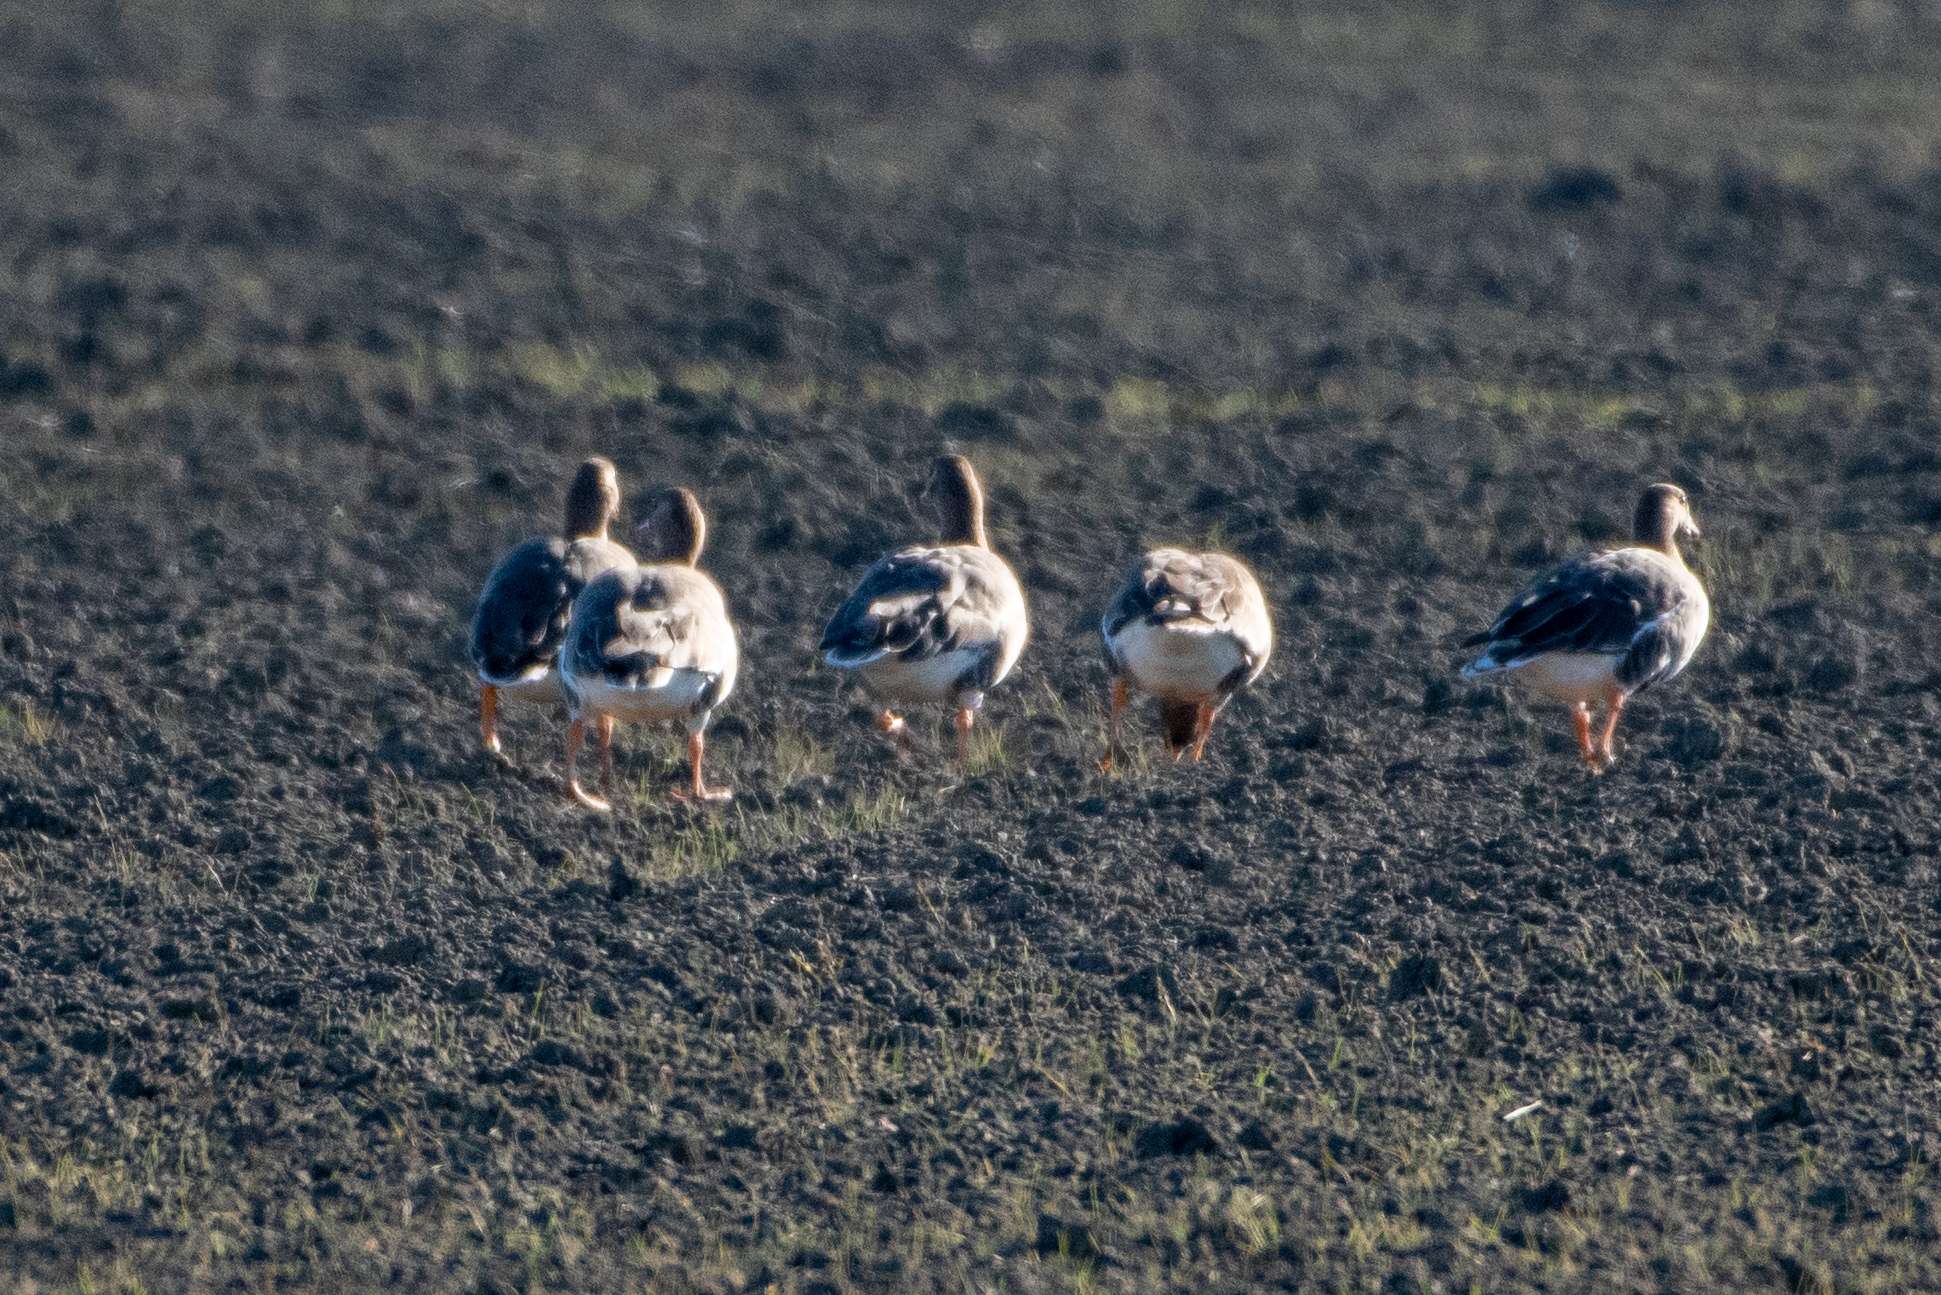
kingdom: Animalia
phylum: Chordata
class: Aves
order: Anseriformes
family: Anatidae
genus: Anser
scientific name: Anser albifrons
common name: Greater white-fronted goose
